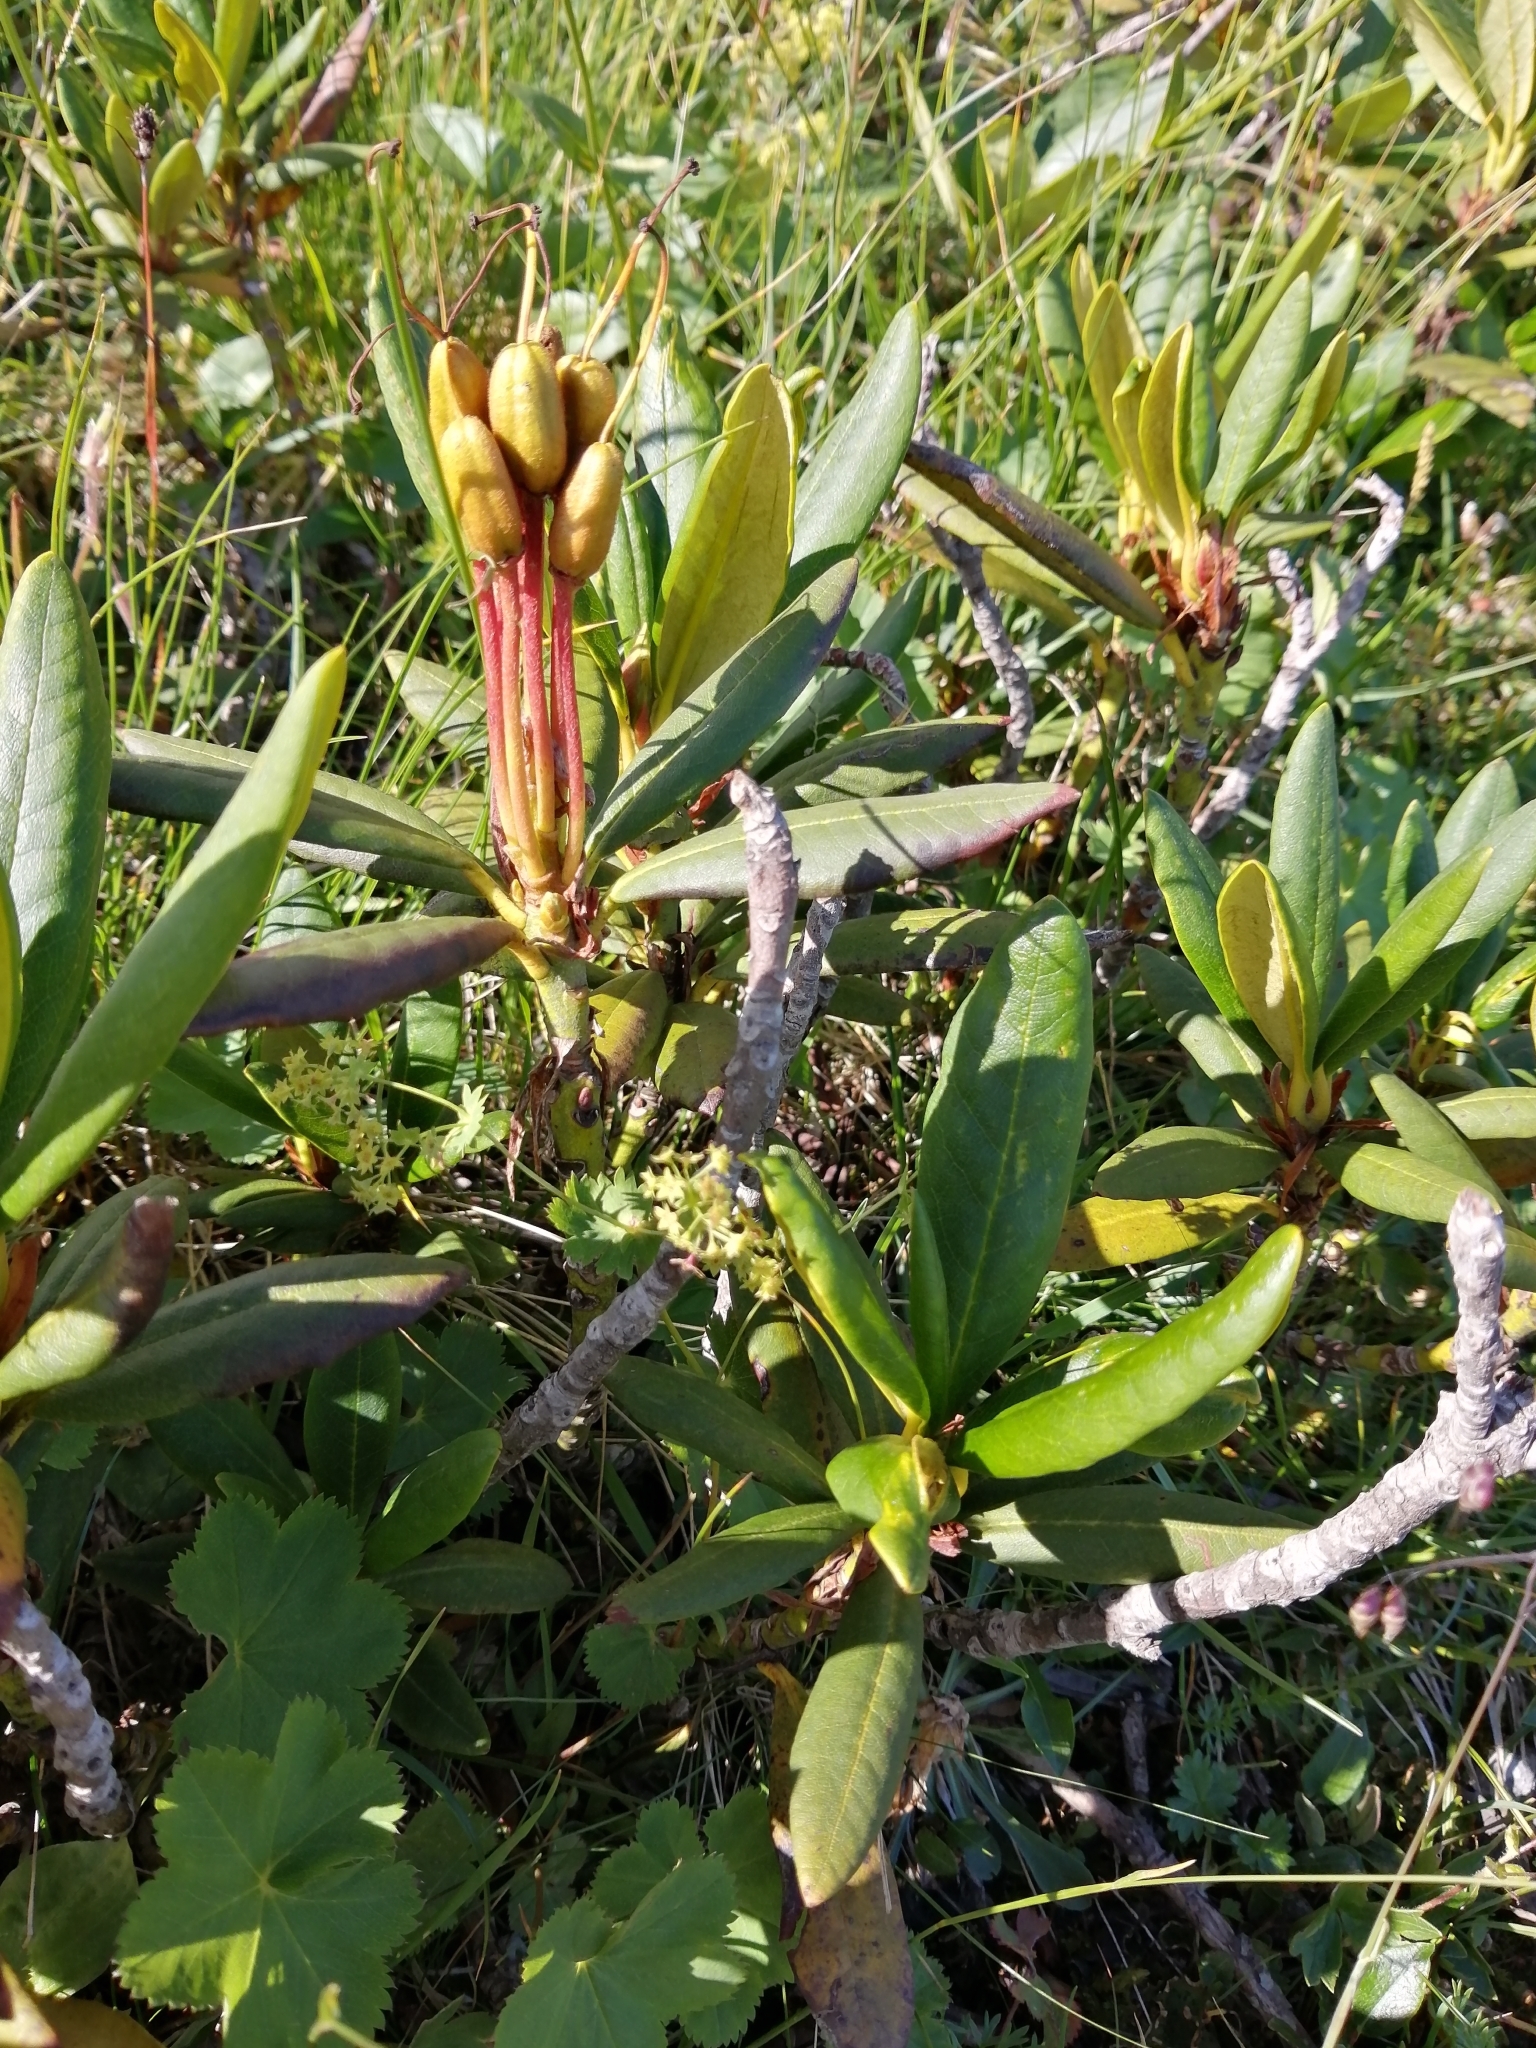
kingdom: Plantae
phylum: Tracheophyta
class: Magnoliopsida
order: Ericales
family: Ericaceae
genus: Rhododendron
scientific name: Rhododendron caucasicum
